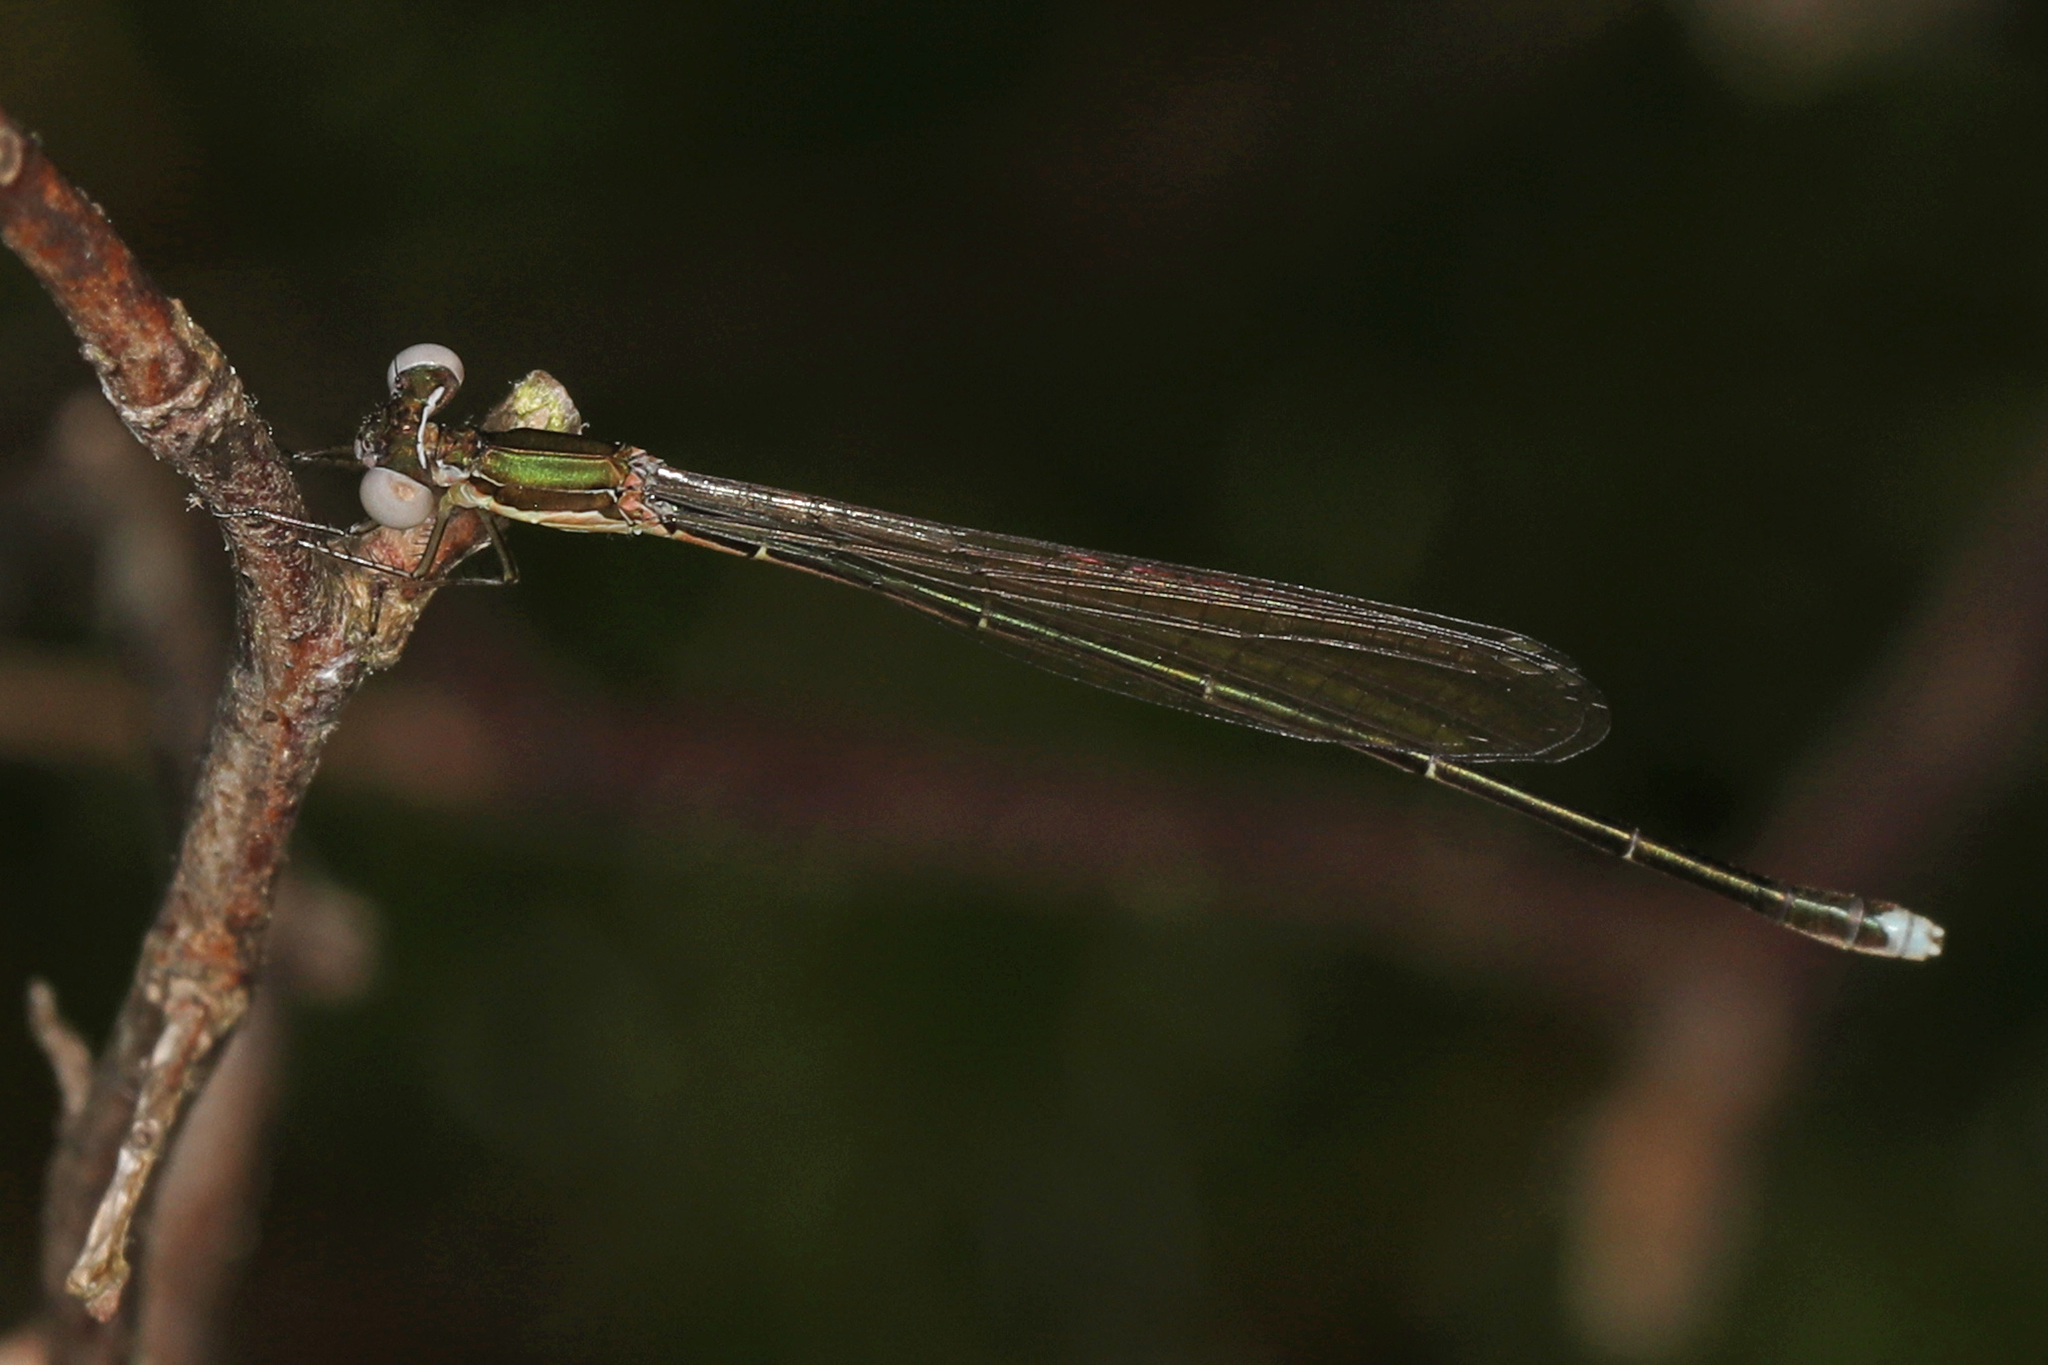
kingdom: Animalia
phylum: Arthropoda
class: Insecta
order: Odonata
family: Coenagrionidae
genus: Nehalennia
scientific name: Nehalennia gracilis
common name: Sphagnum sprite
